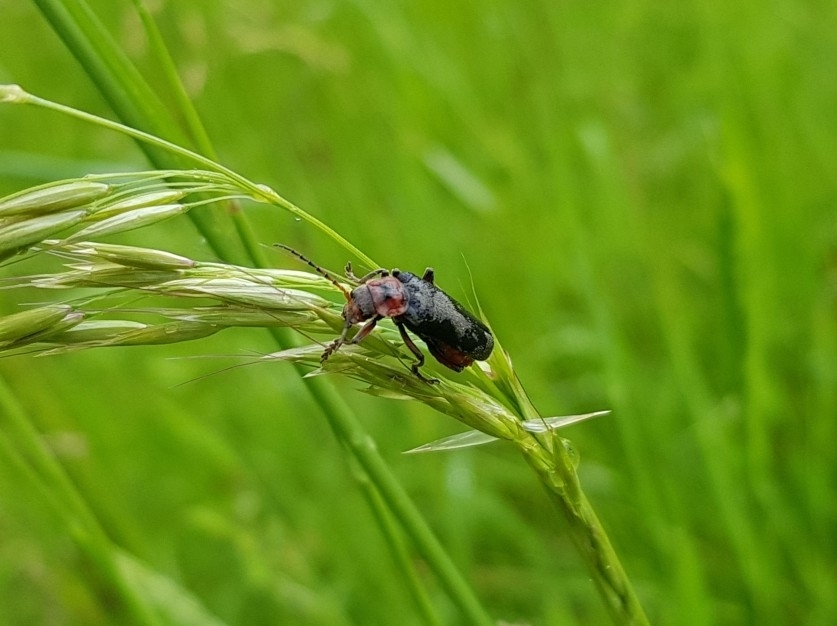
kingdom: Animalia
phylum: Arthropoda
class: Insecta
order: Coleoptera
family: Cantharidae
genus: Cantharis
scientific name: Cantharis rustica
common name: Soldier beetle
